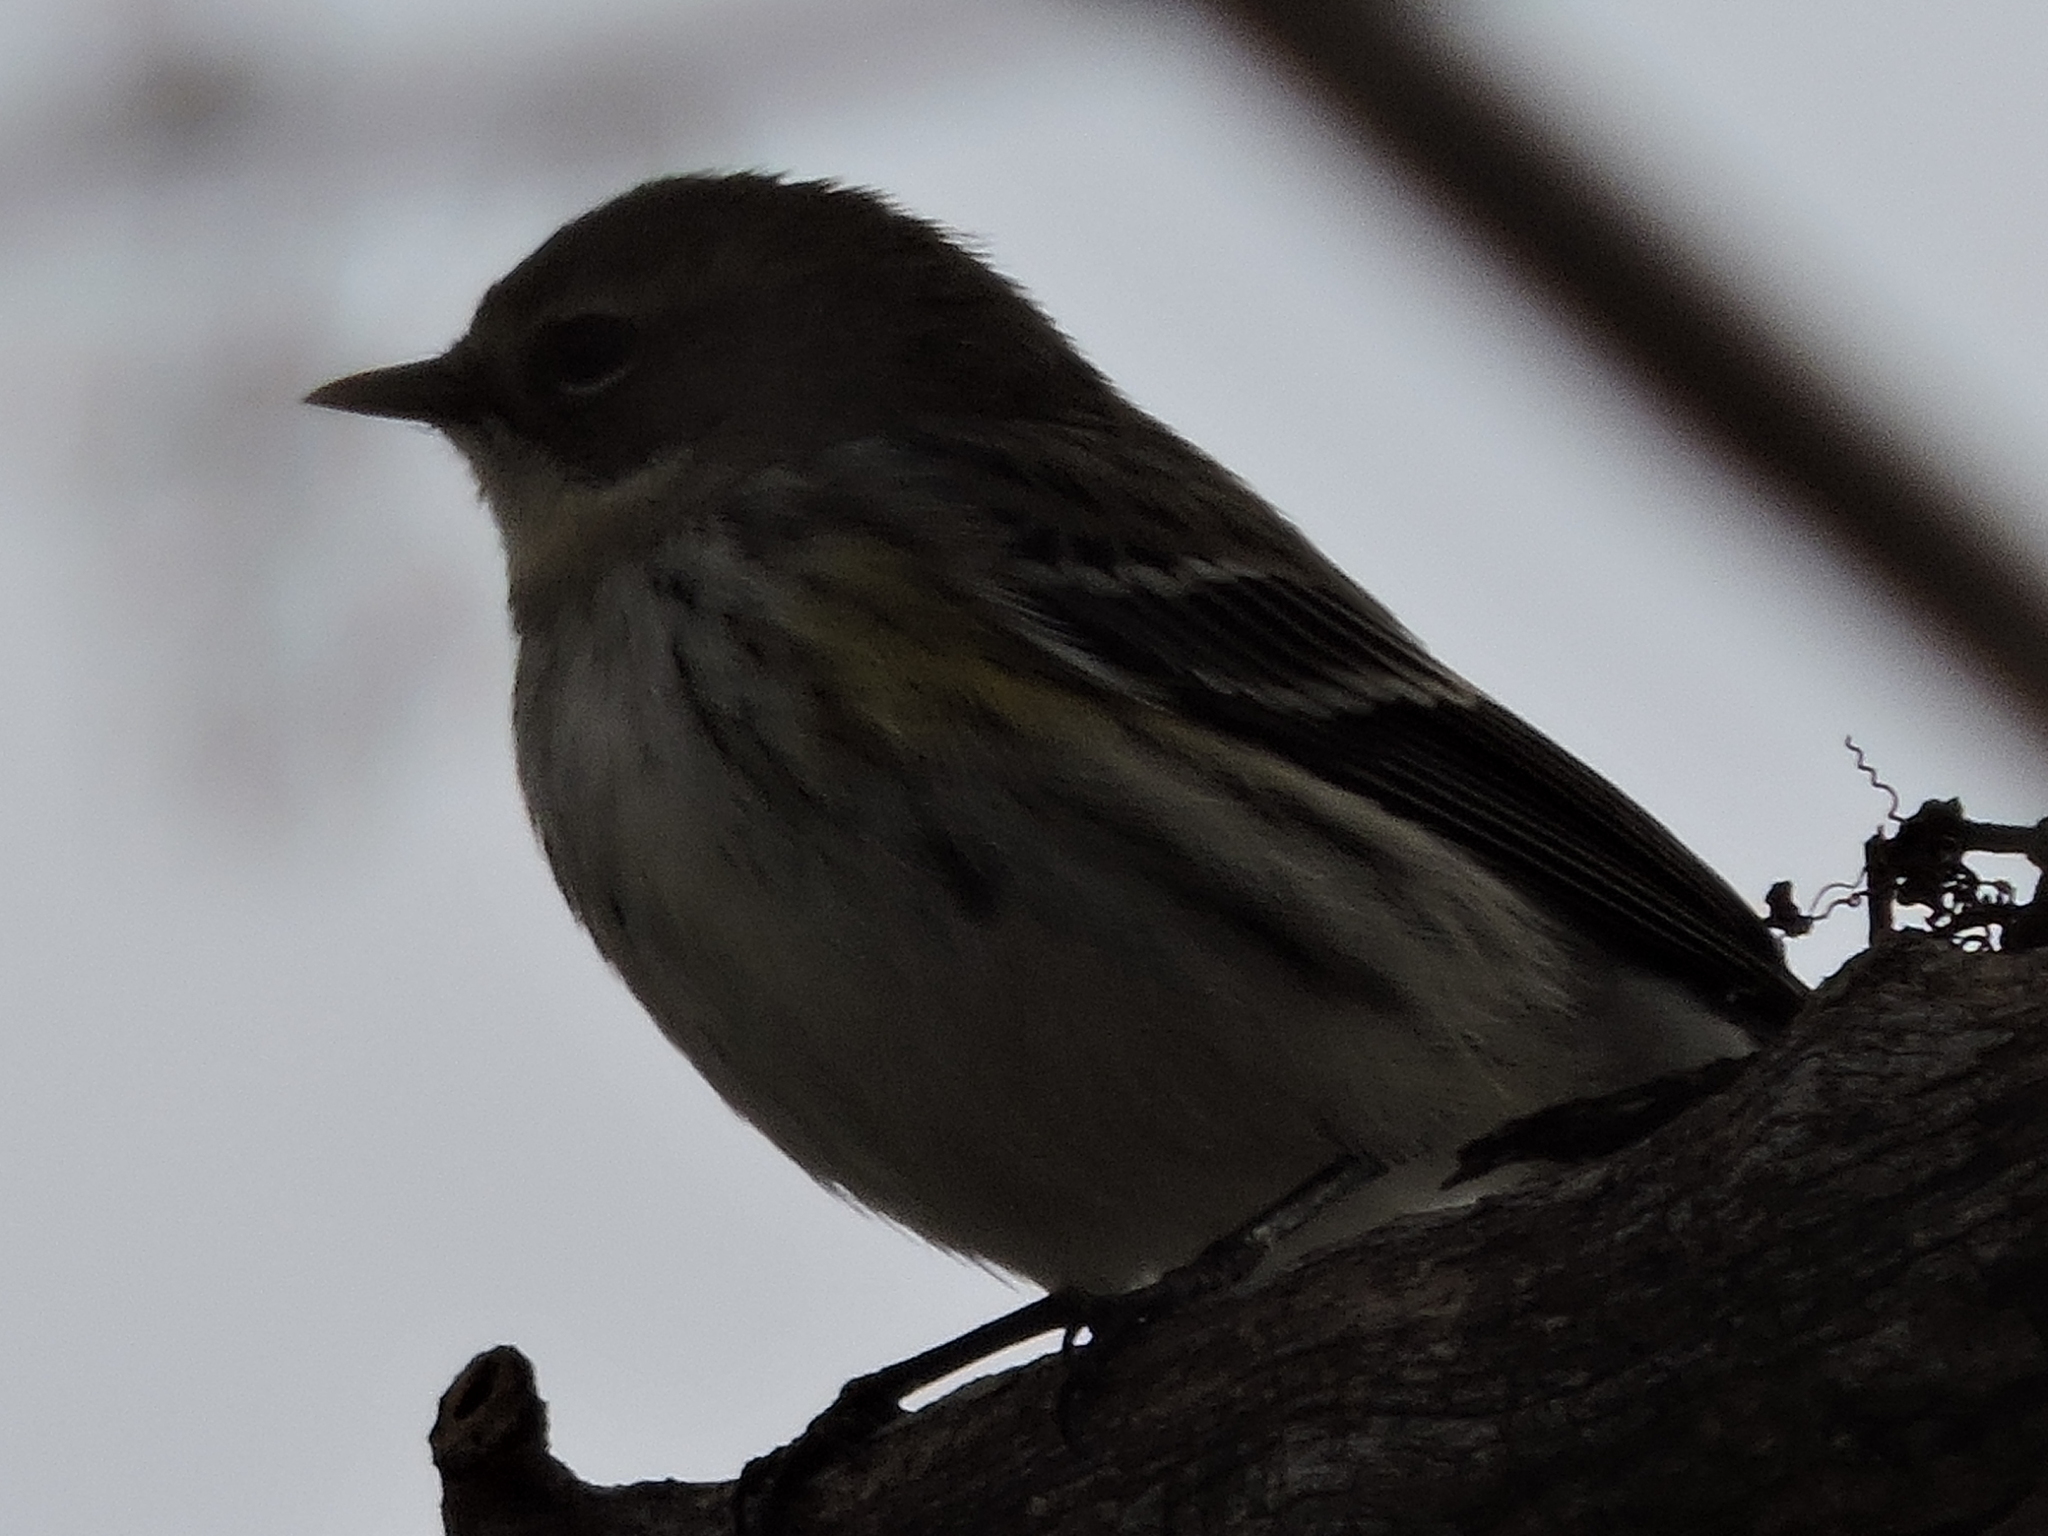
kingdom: Animalia
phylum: Chordata
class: Aves
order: Passeriformes
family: Parulidae
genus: Setophaga
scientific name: Setophaga coronata
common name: Myrtle warbler
